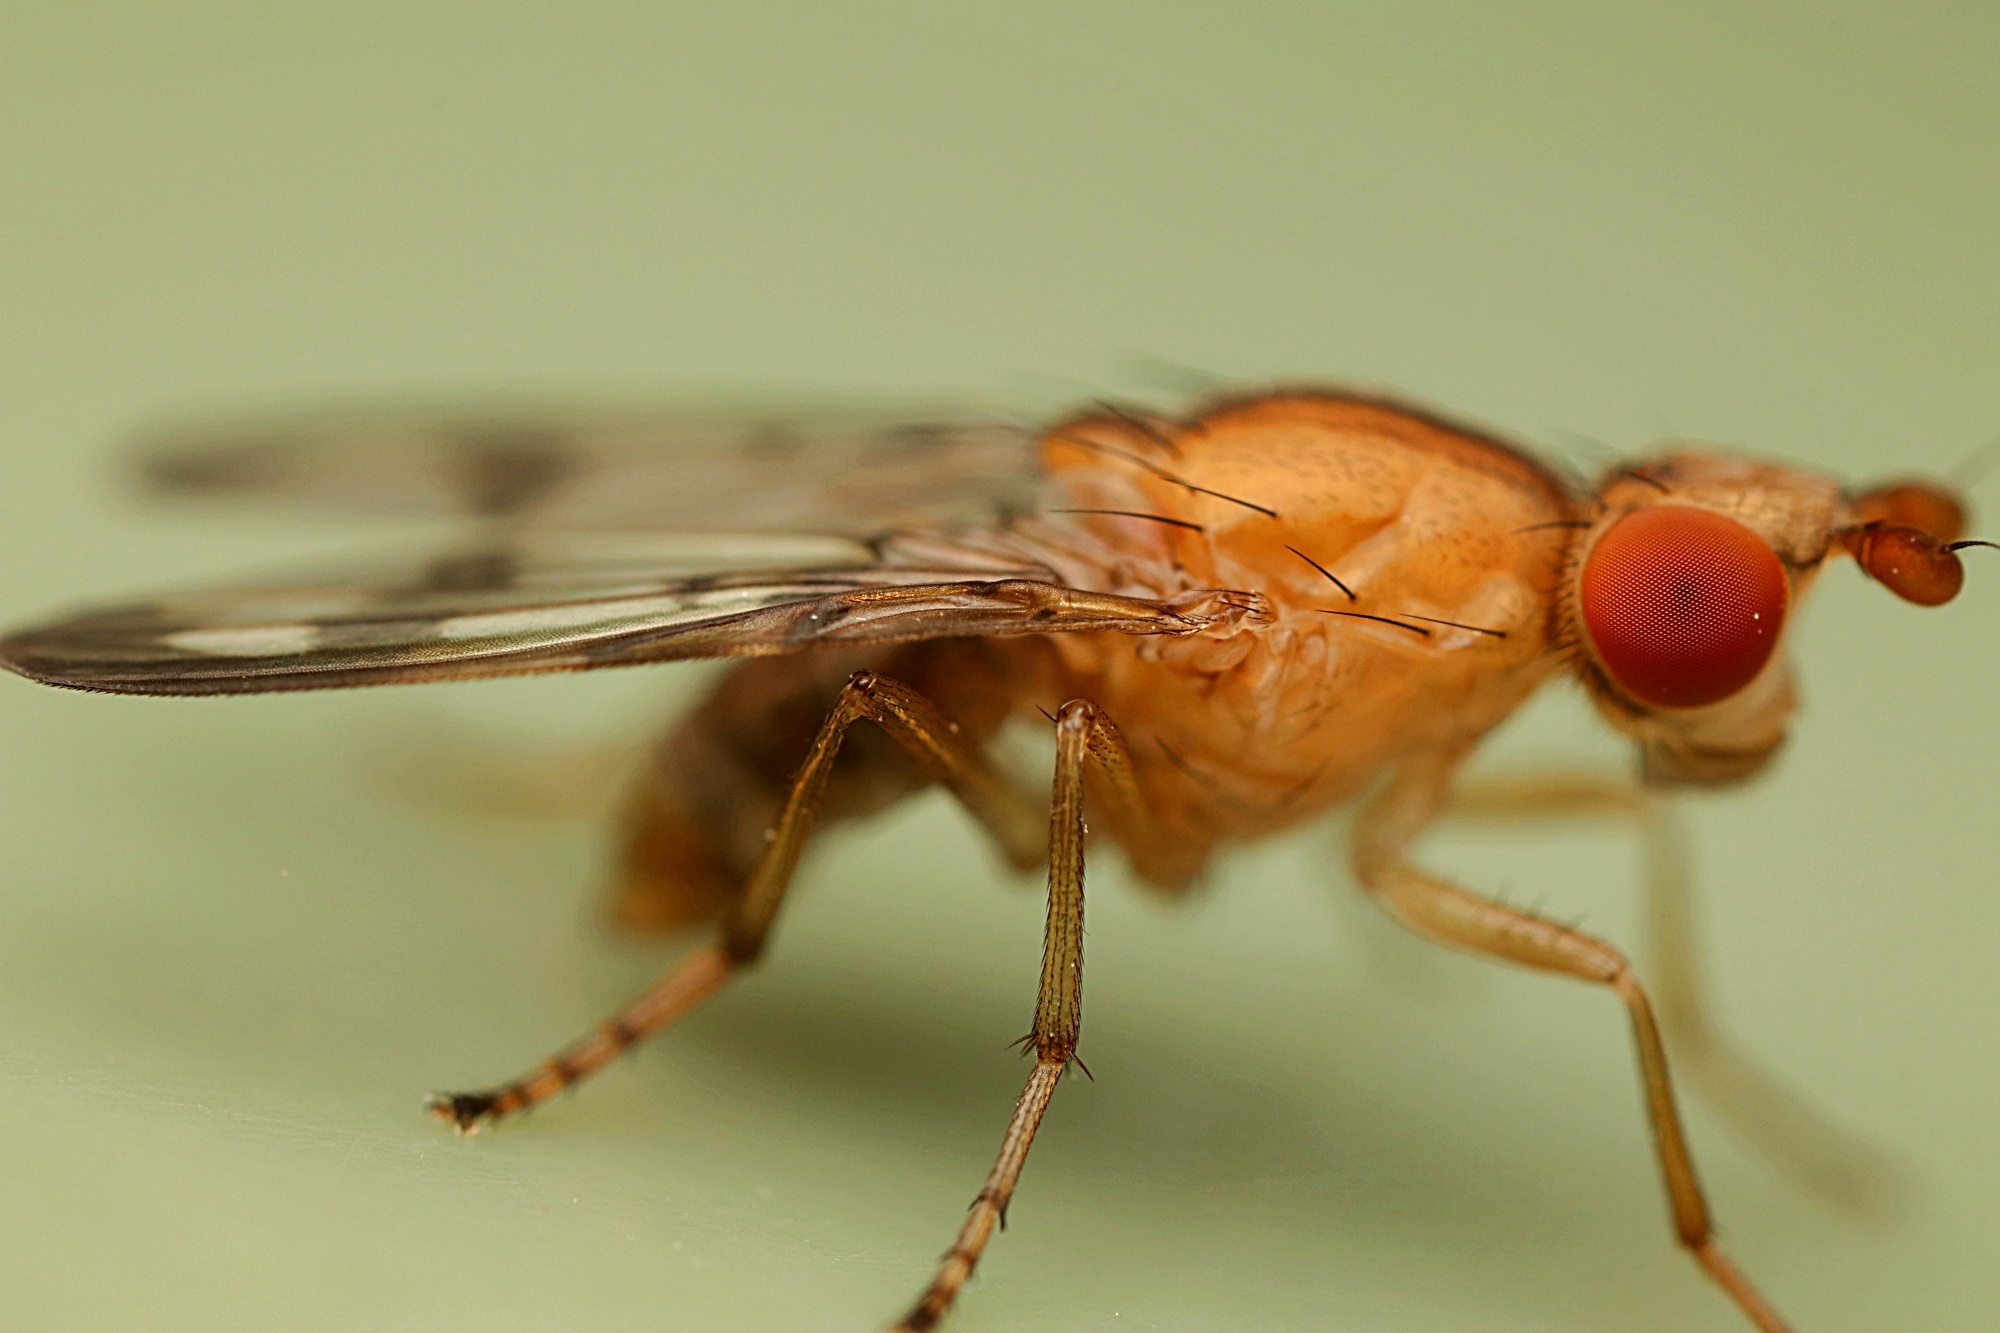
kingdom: Animalia
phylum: Arthropoda
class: Insecta
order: Diptera
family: Sciomyzidae
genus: Prosochaeta
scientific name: Prosochaeta prima
